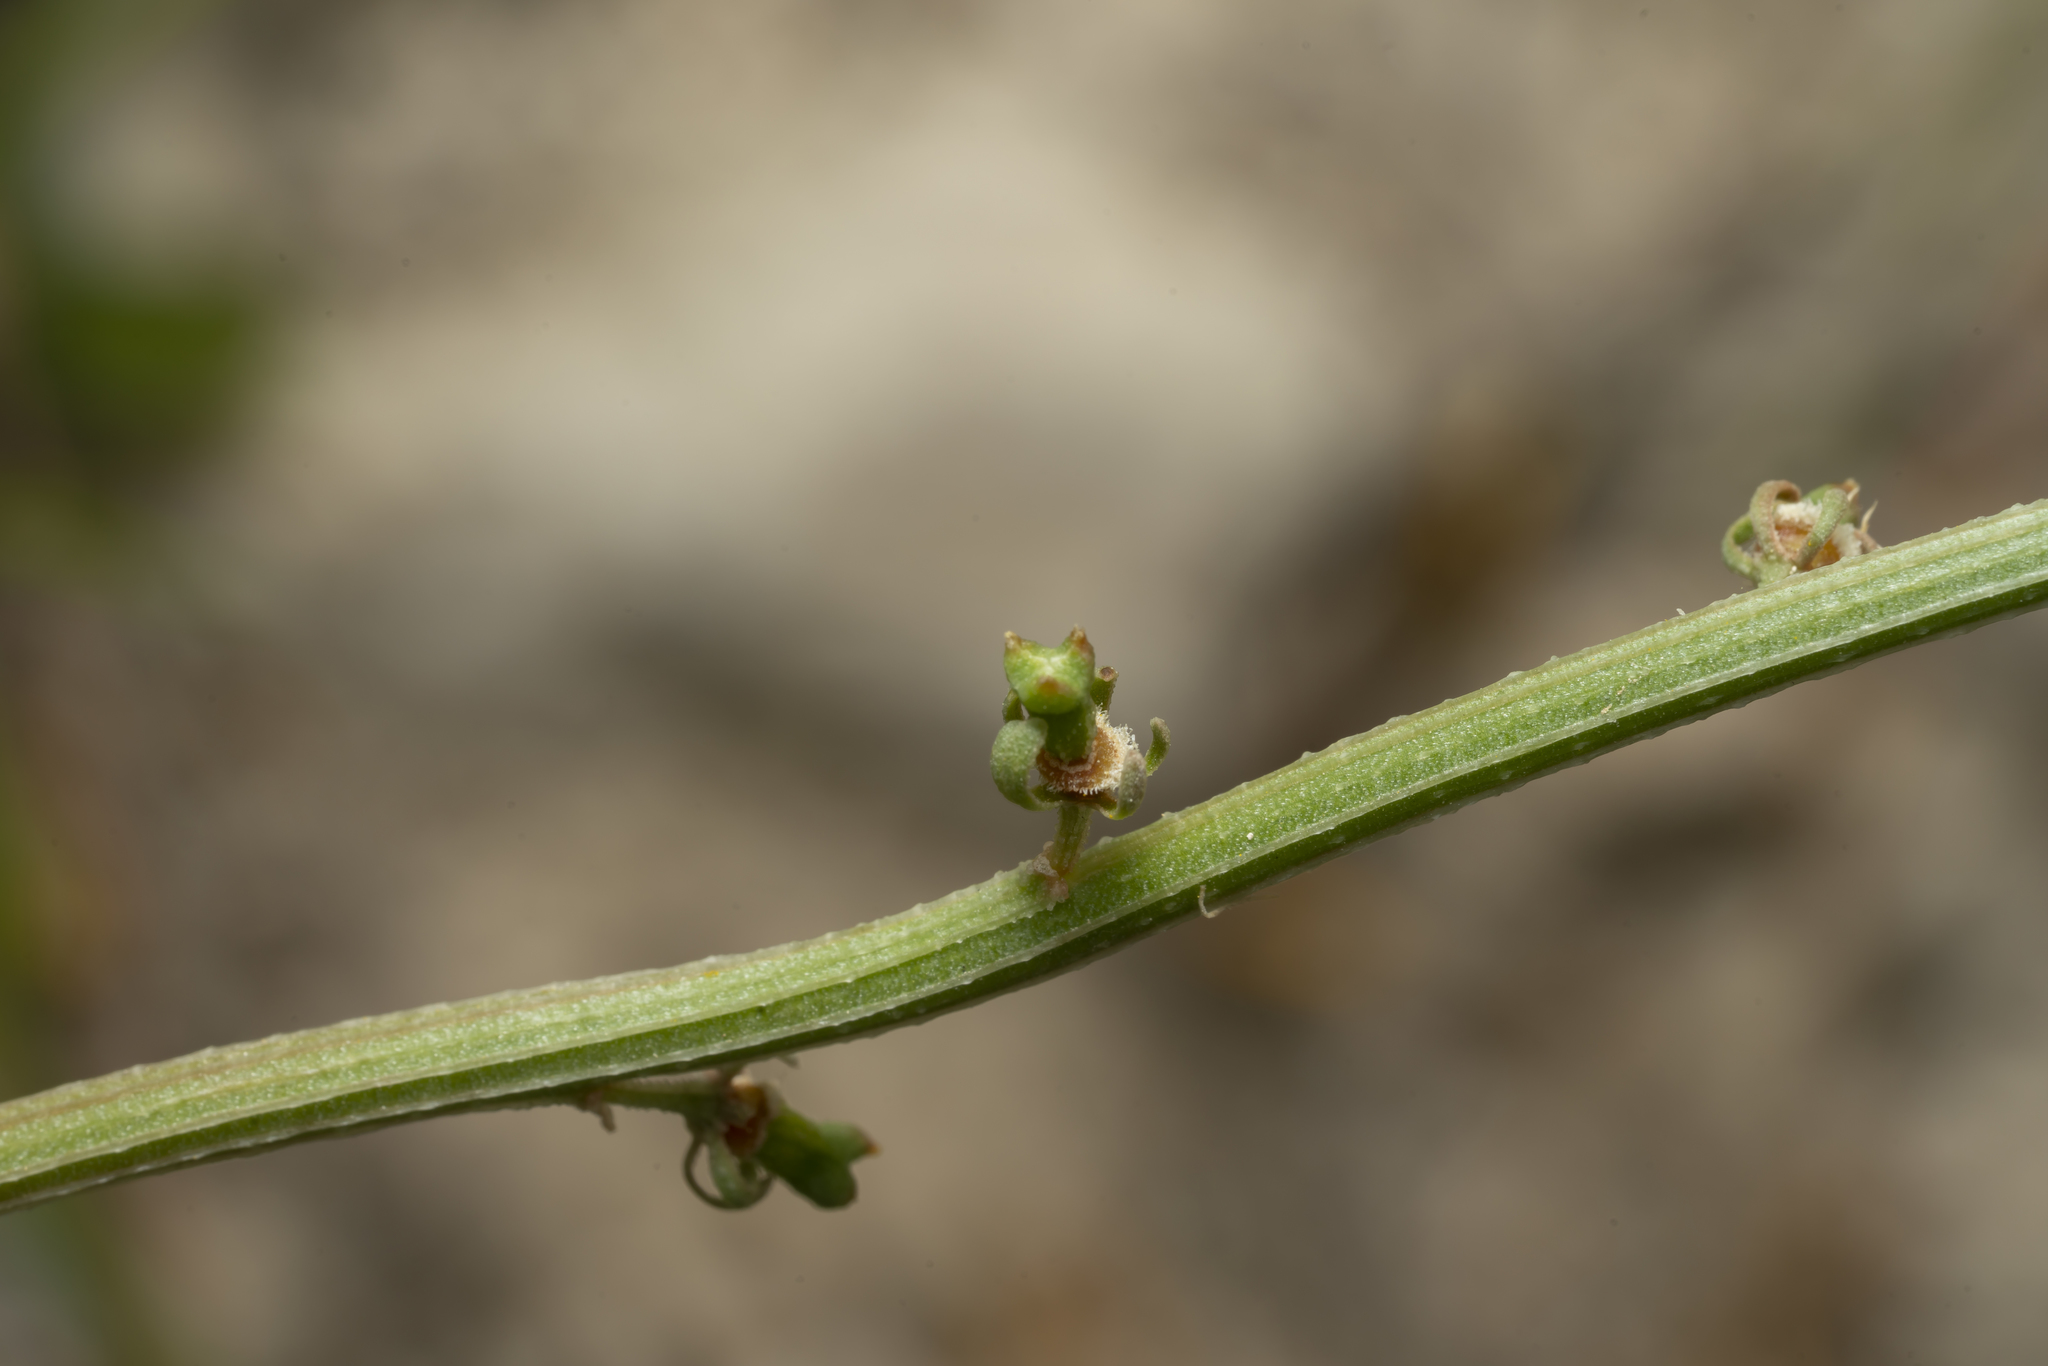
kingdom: Plantae
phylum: Tracheophyta
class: Magnoliopsida
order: Brassicales
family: Resedaceae
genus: Reseda
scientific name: Reseda lutea
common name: Wild mignonette
